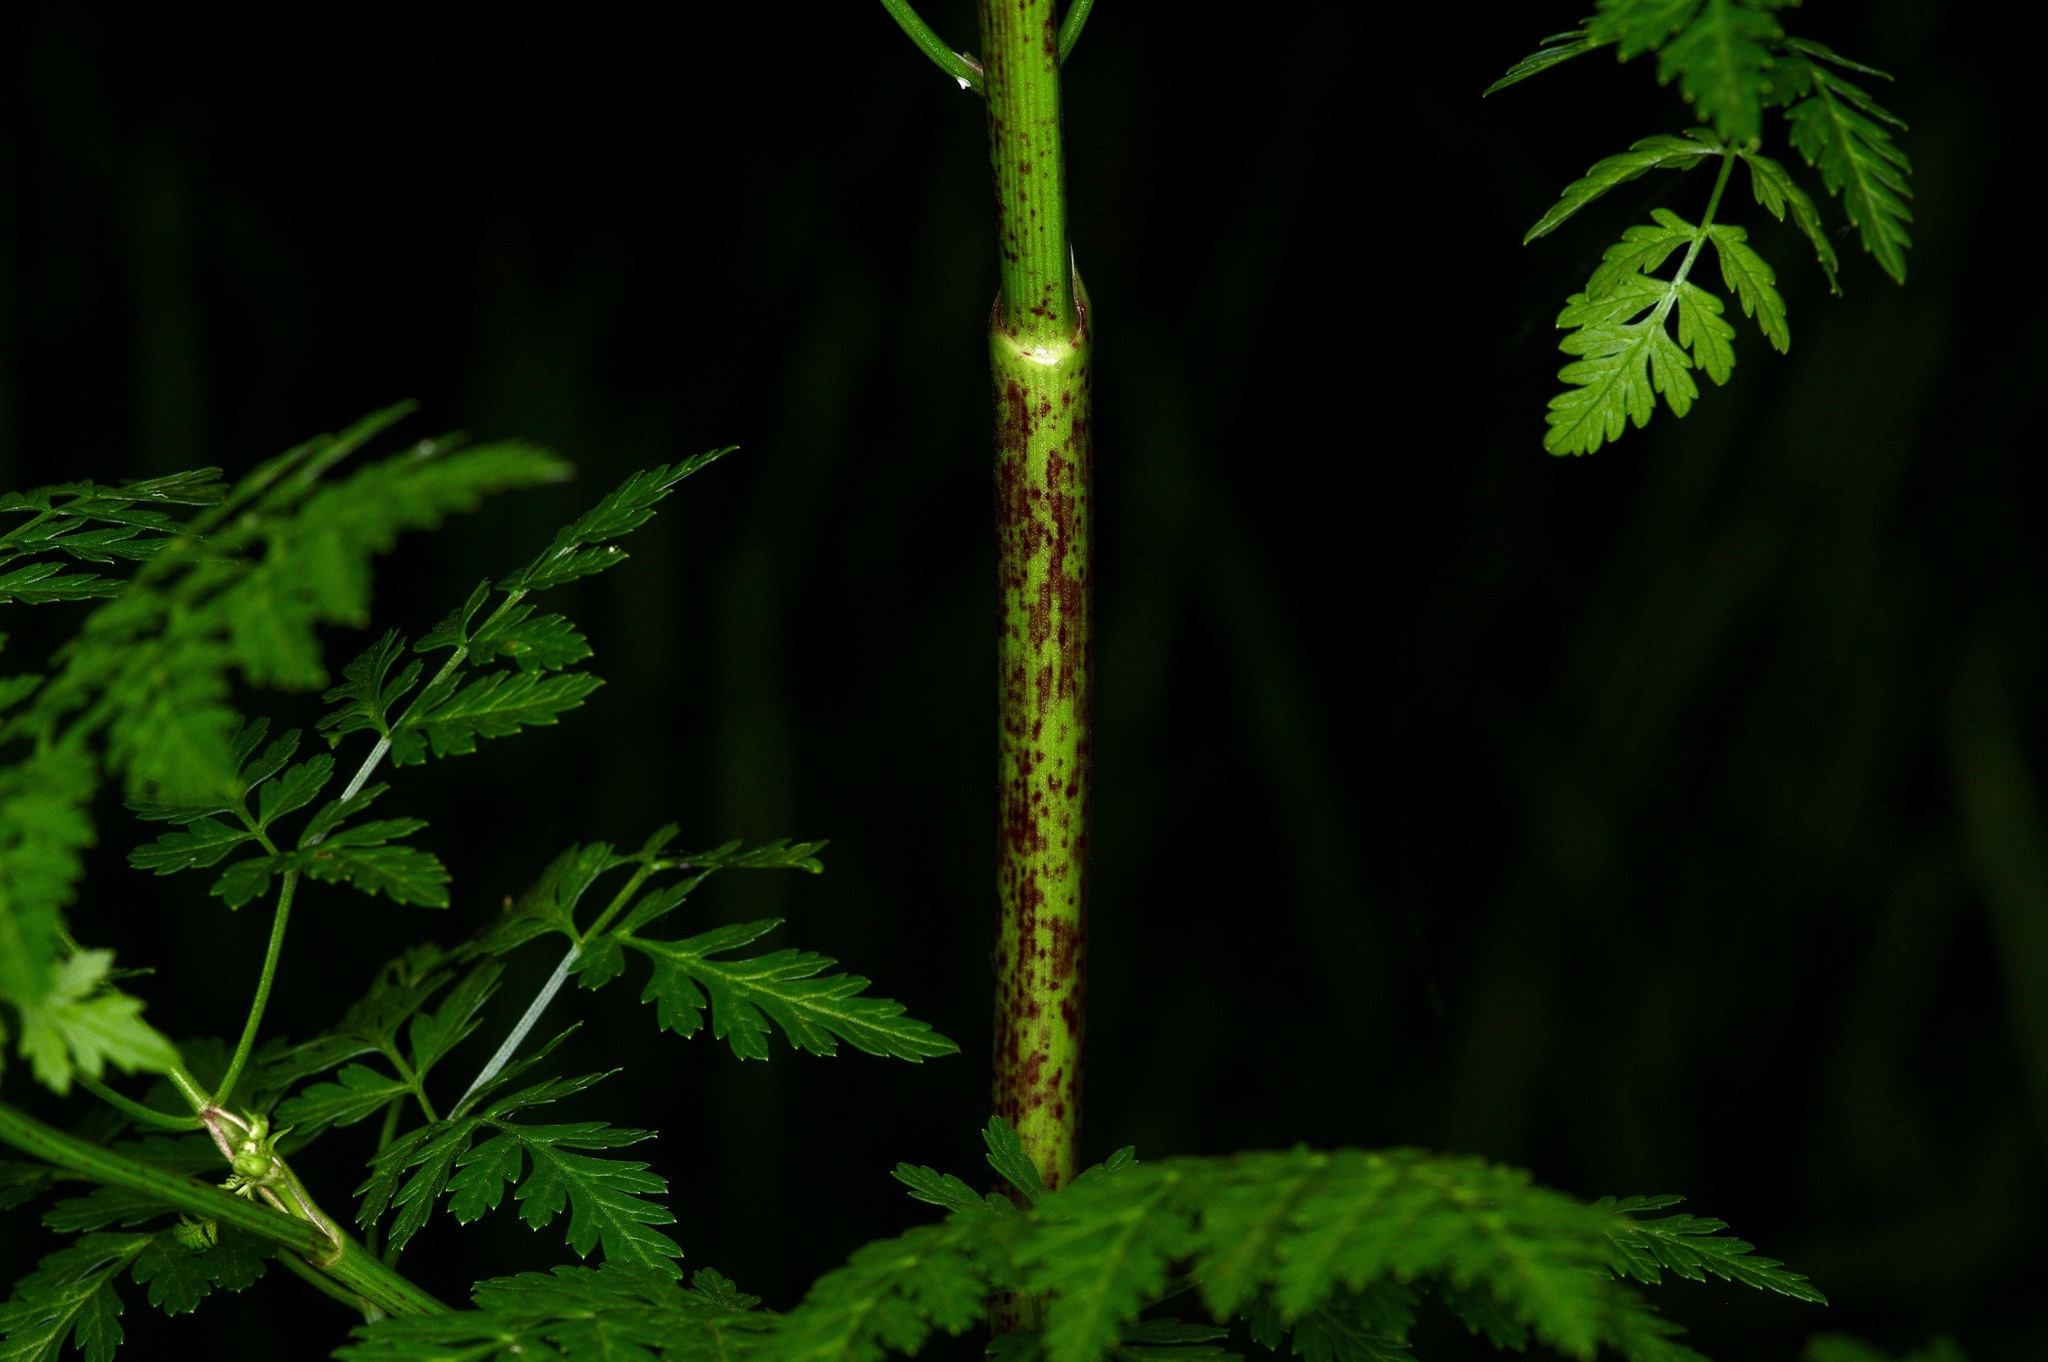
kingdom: Plantae
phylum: Tracheophyta
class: Magnoliopsida
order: Apiales
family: Apiaceae
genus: Conium
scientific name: Conium maculatum
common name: Hemlock
